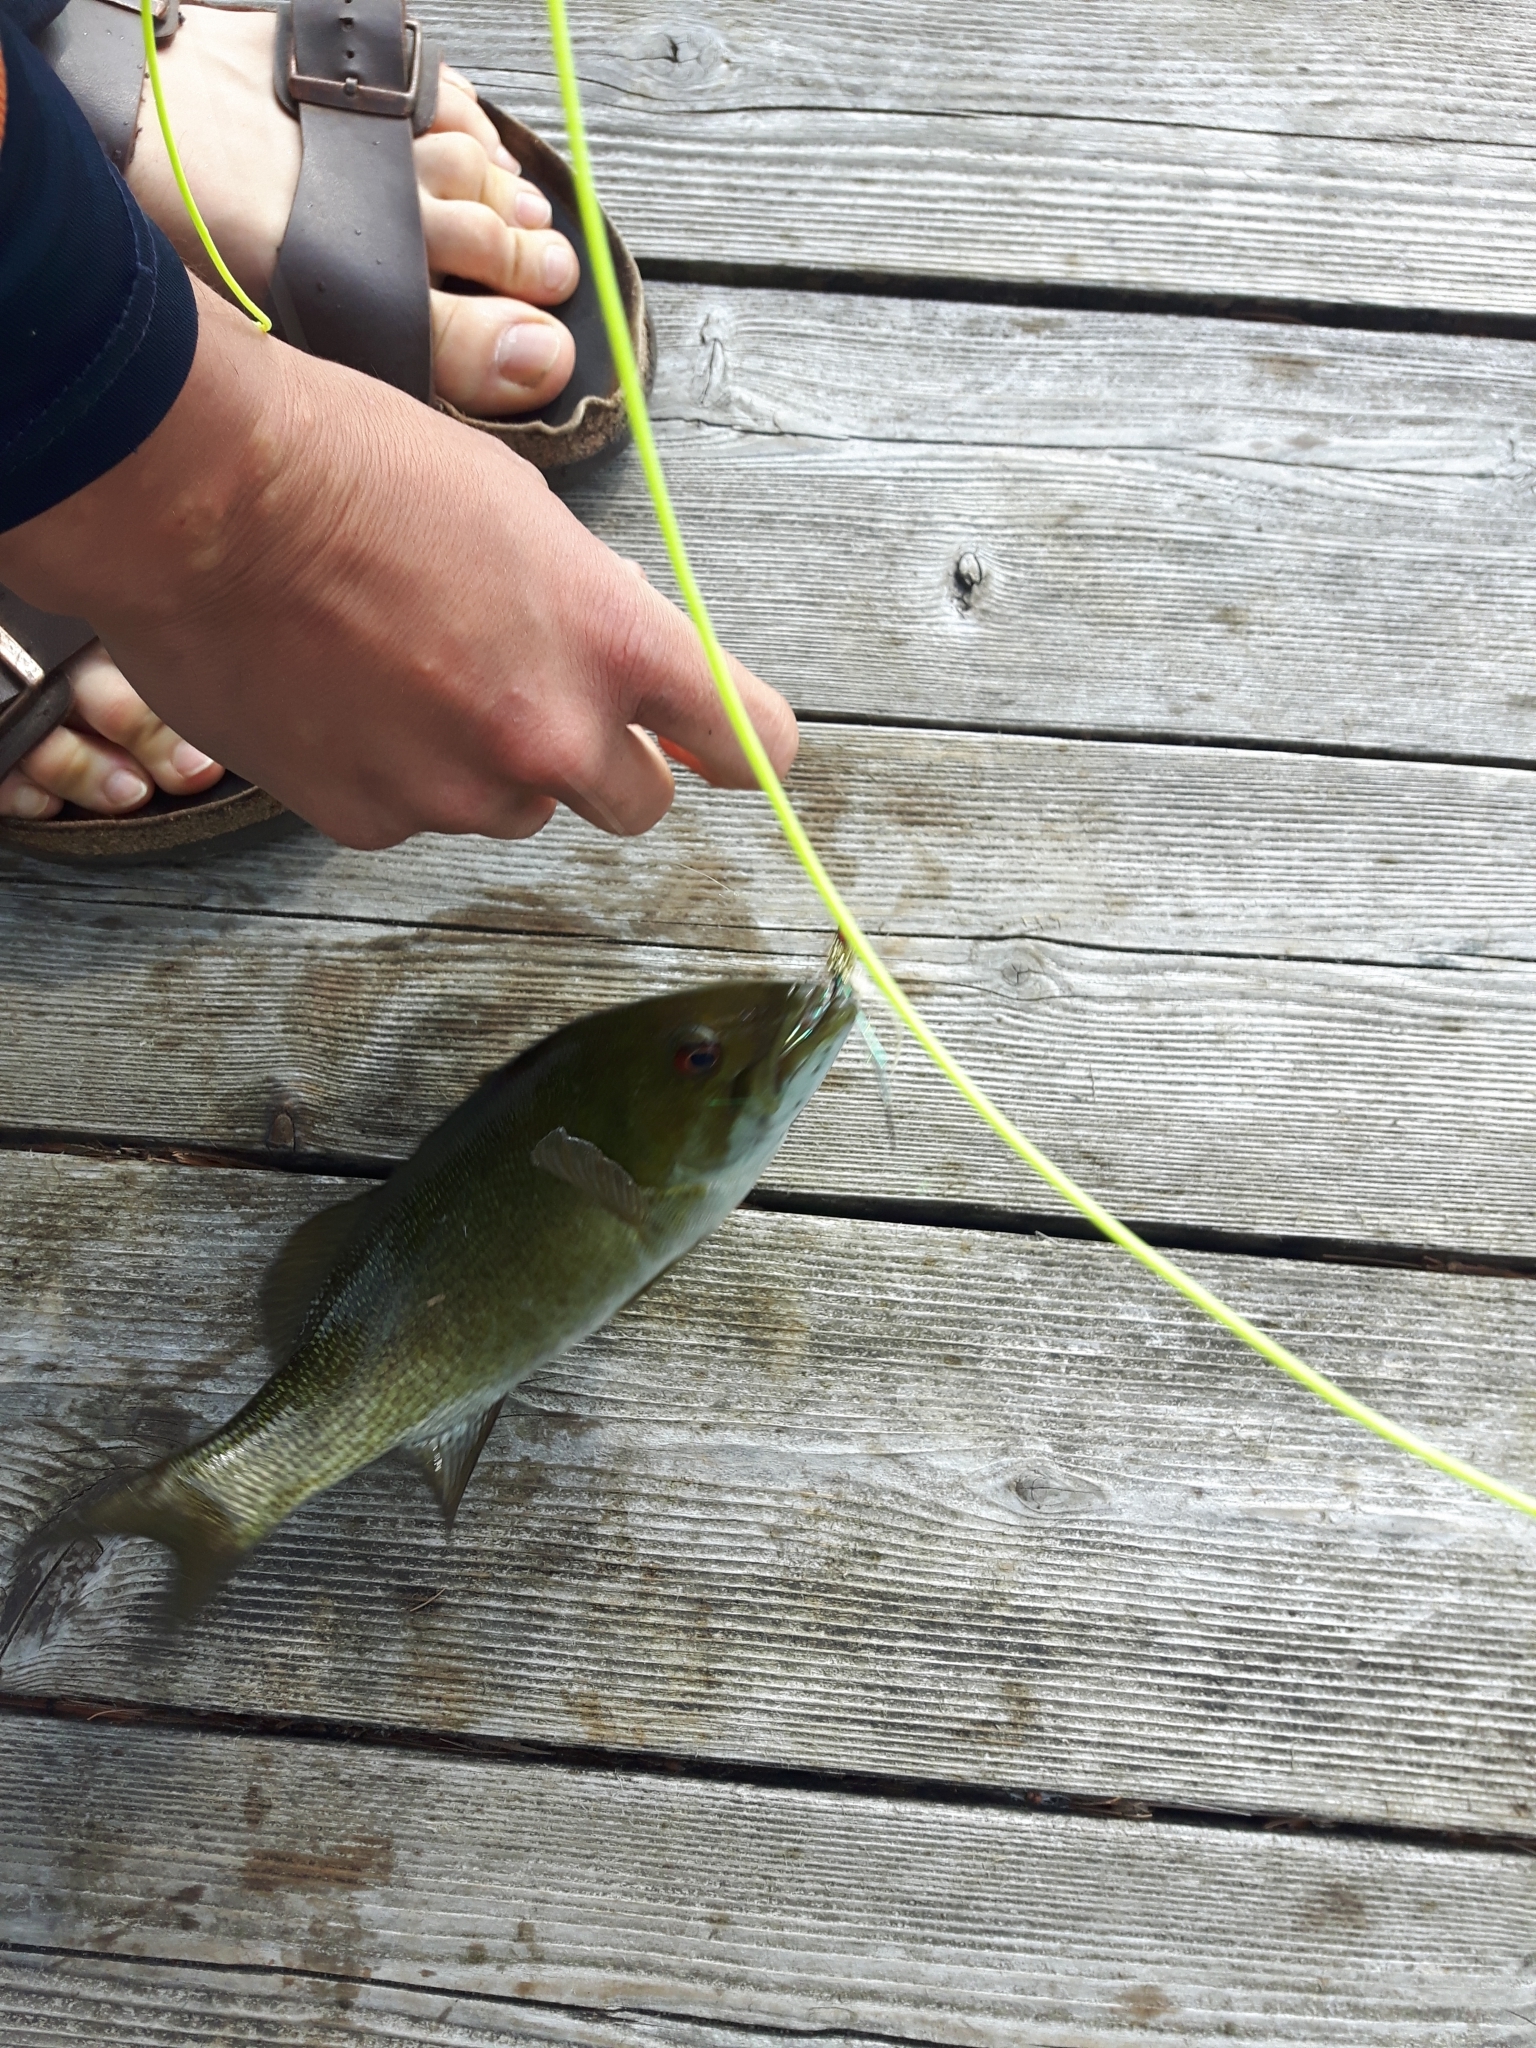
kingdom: Animalia
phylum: Chordata
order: Perciformes
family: Centrarchidae
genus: Micropterus
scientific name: Micropterus dolomieu
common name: Smallmouth bass
